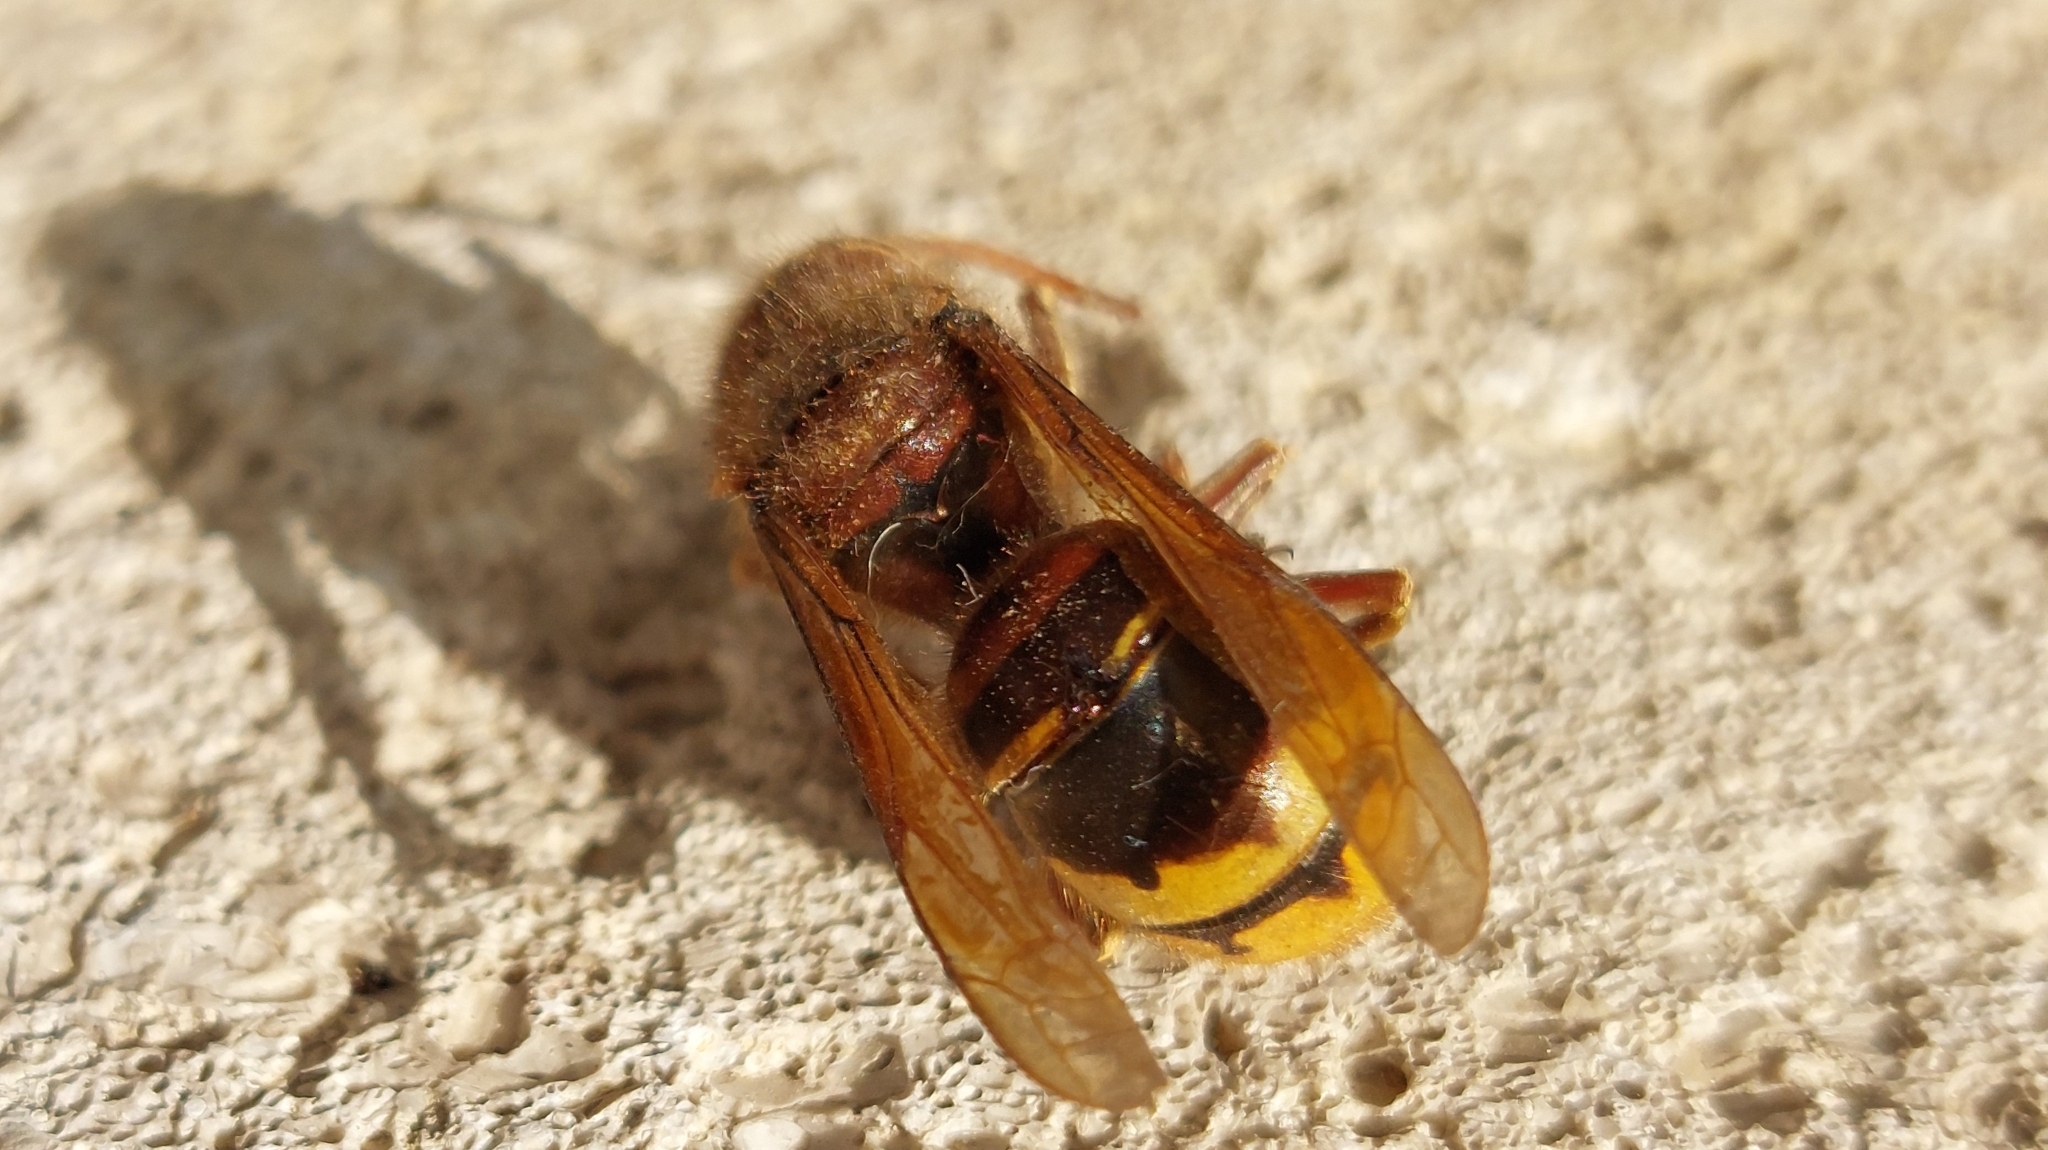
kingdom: Animalia
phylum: Arthropoda
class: Insecta
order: Hymenoptera
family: Vespidae
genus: Vespa
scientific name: Vespa crabro
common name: Hornet
